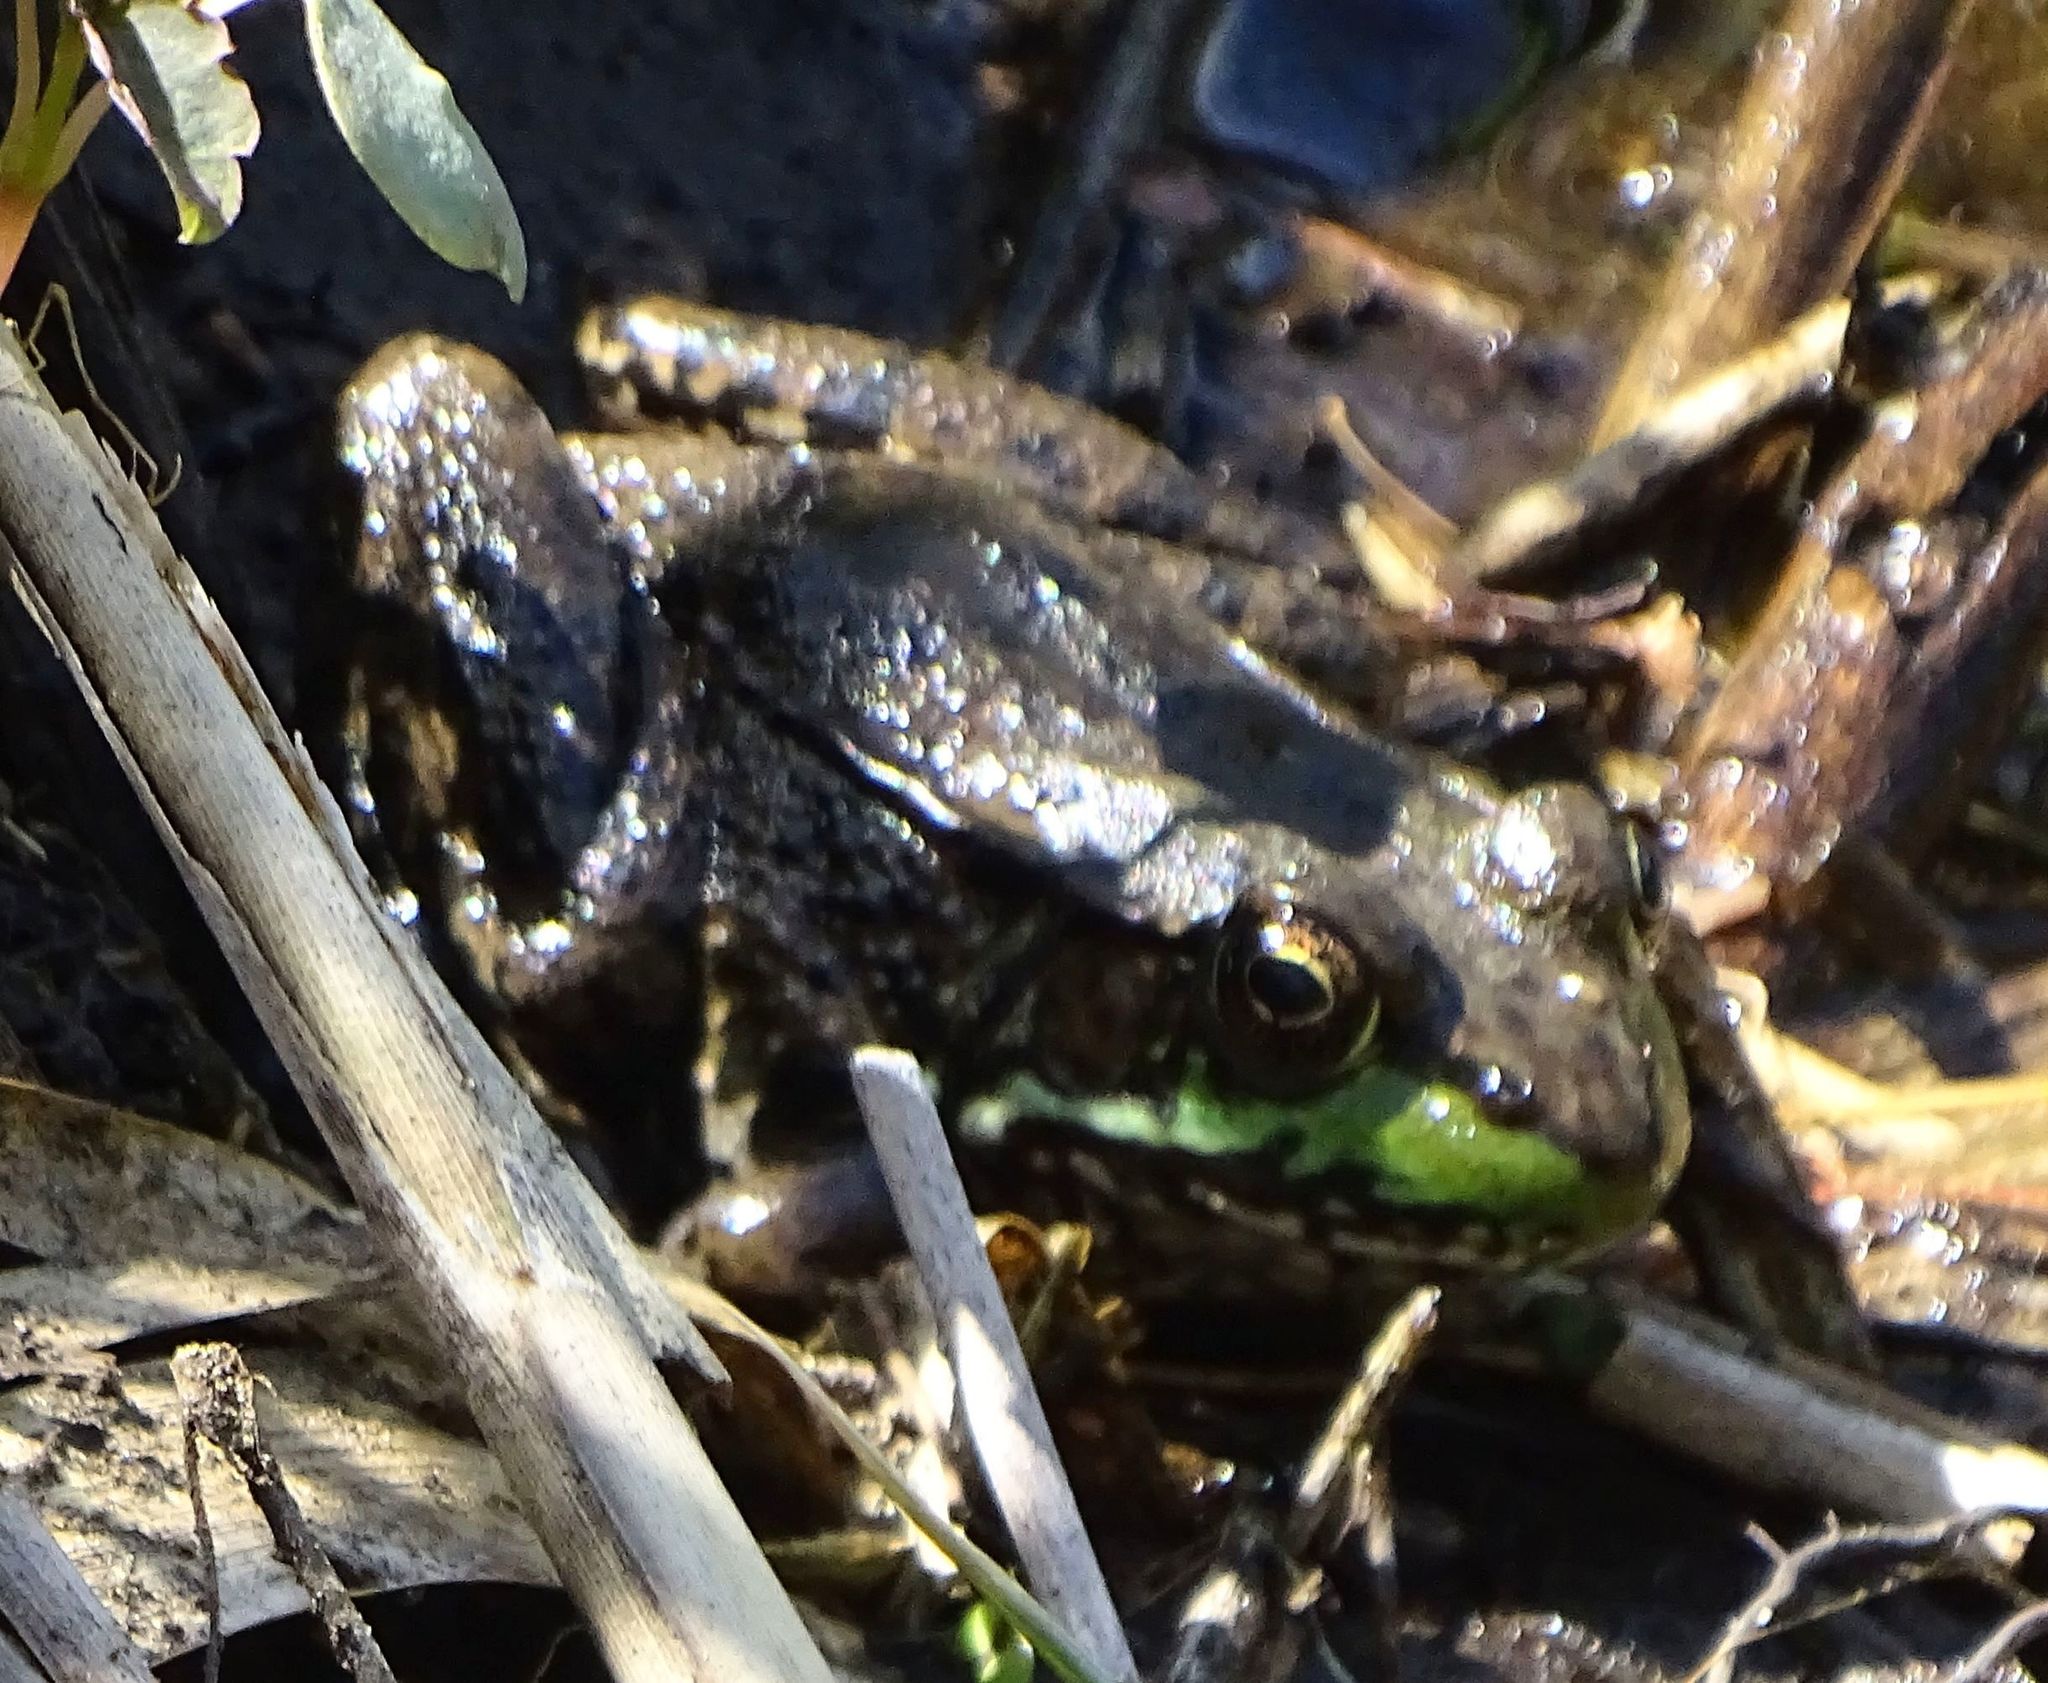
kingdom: Animalia
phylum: Chordata
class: Amphibia
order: Anura
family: Ranidae
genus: Lithobates
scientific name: Lithobates clamitans
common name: Green frog
